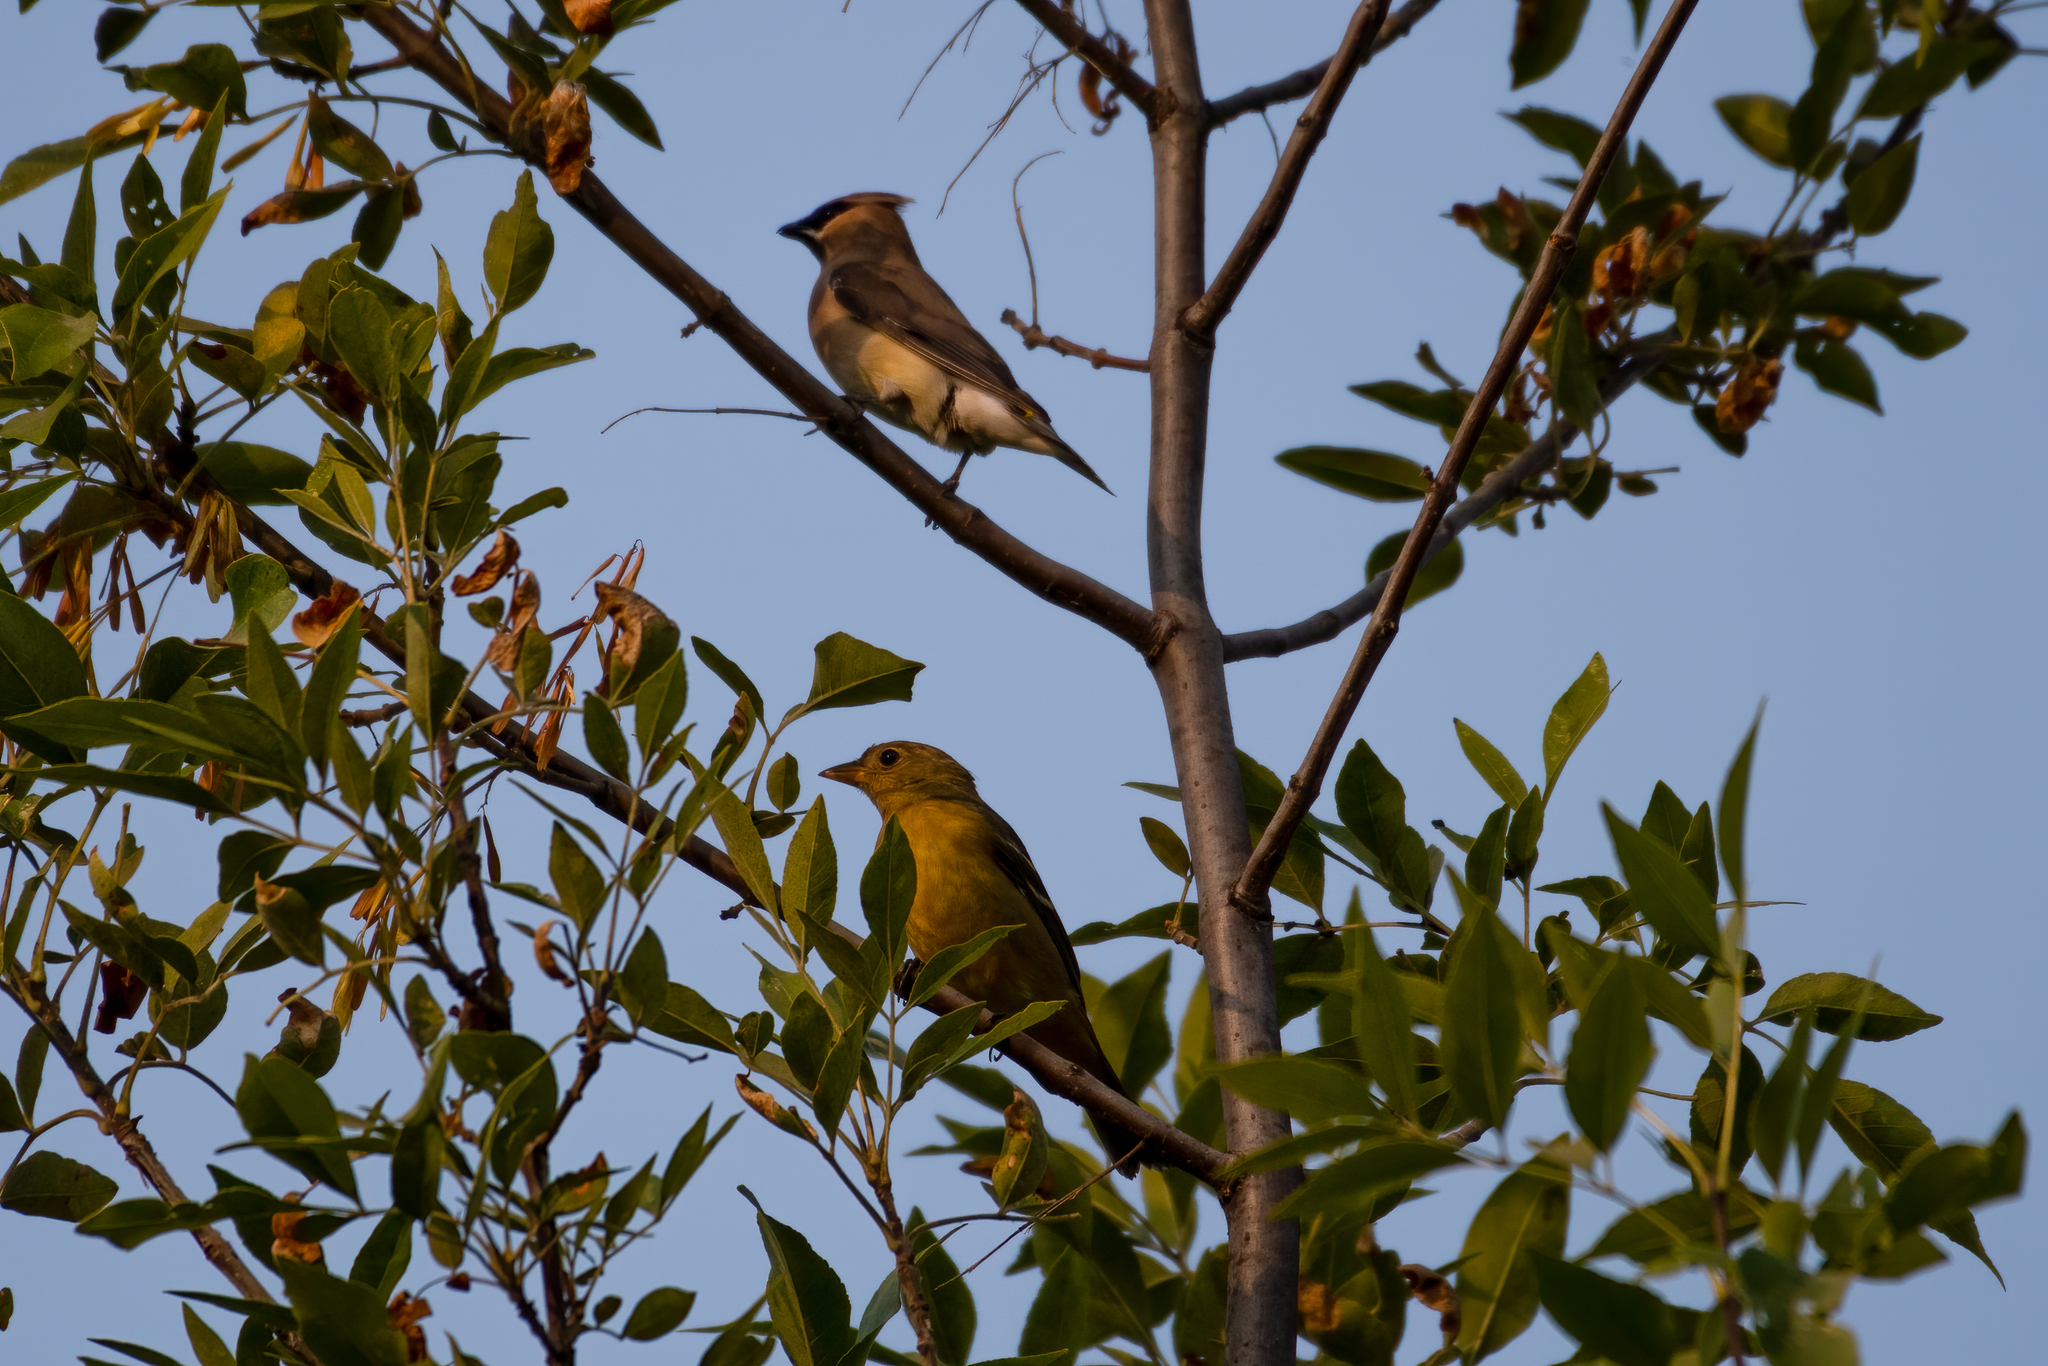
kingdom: Animalia
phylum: Chordata
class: Aves
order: Passeriformes
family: Bombycillidae
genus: Bombycilla
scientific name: Bombycilla cedrorum
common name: Cedar waxwing
